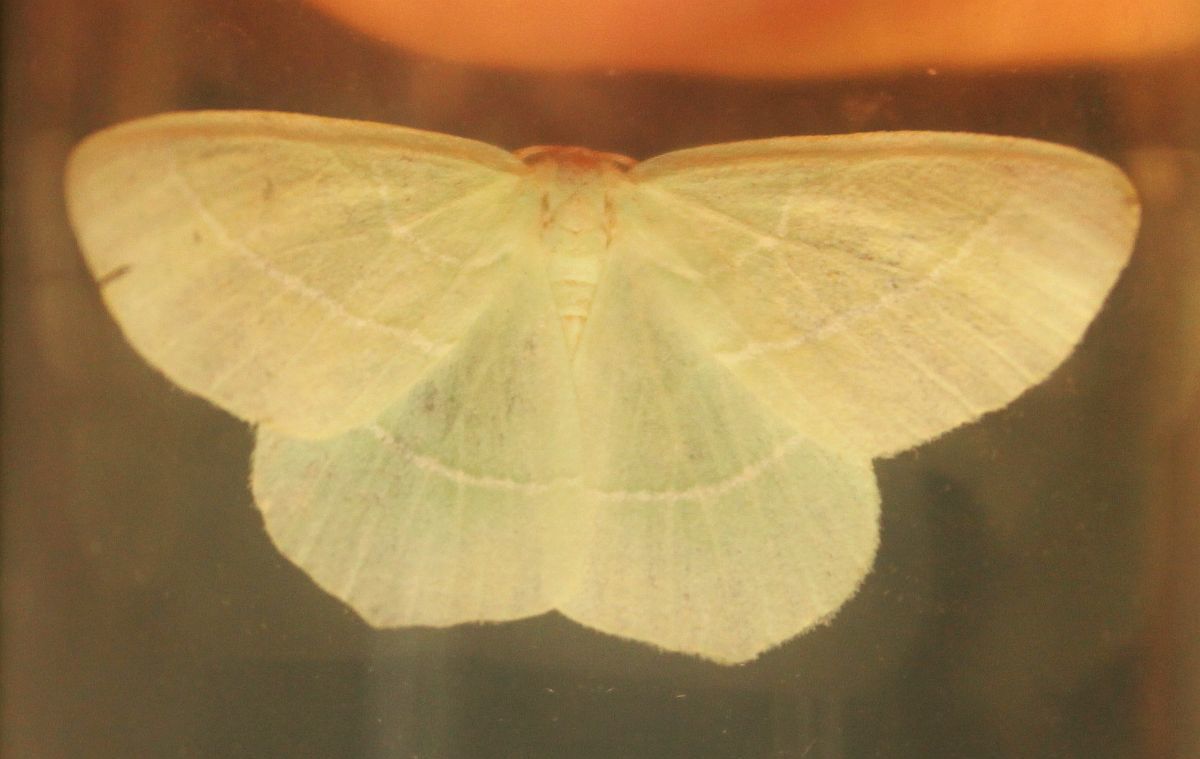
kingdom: Animalia
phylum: Arthropoda
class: Insecta
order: Lepidoptera
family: Geometridae
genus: Hemistola
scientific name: Hemistola chrysoprasaria
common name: Small emerald
